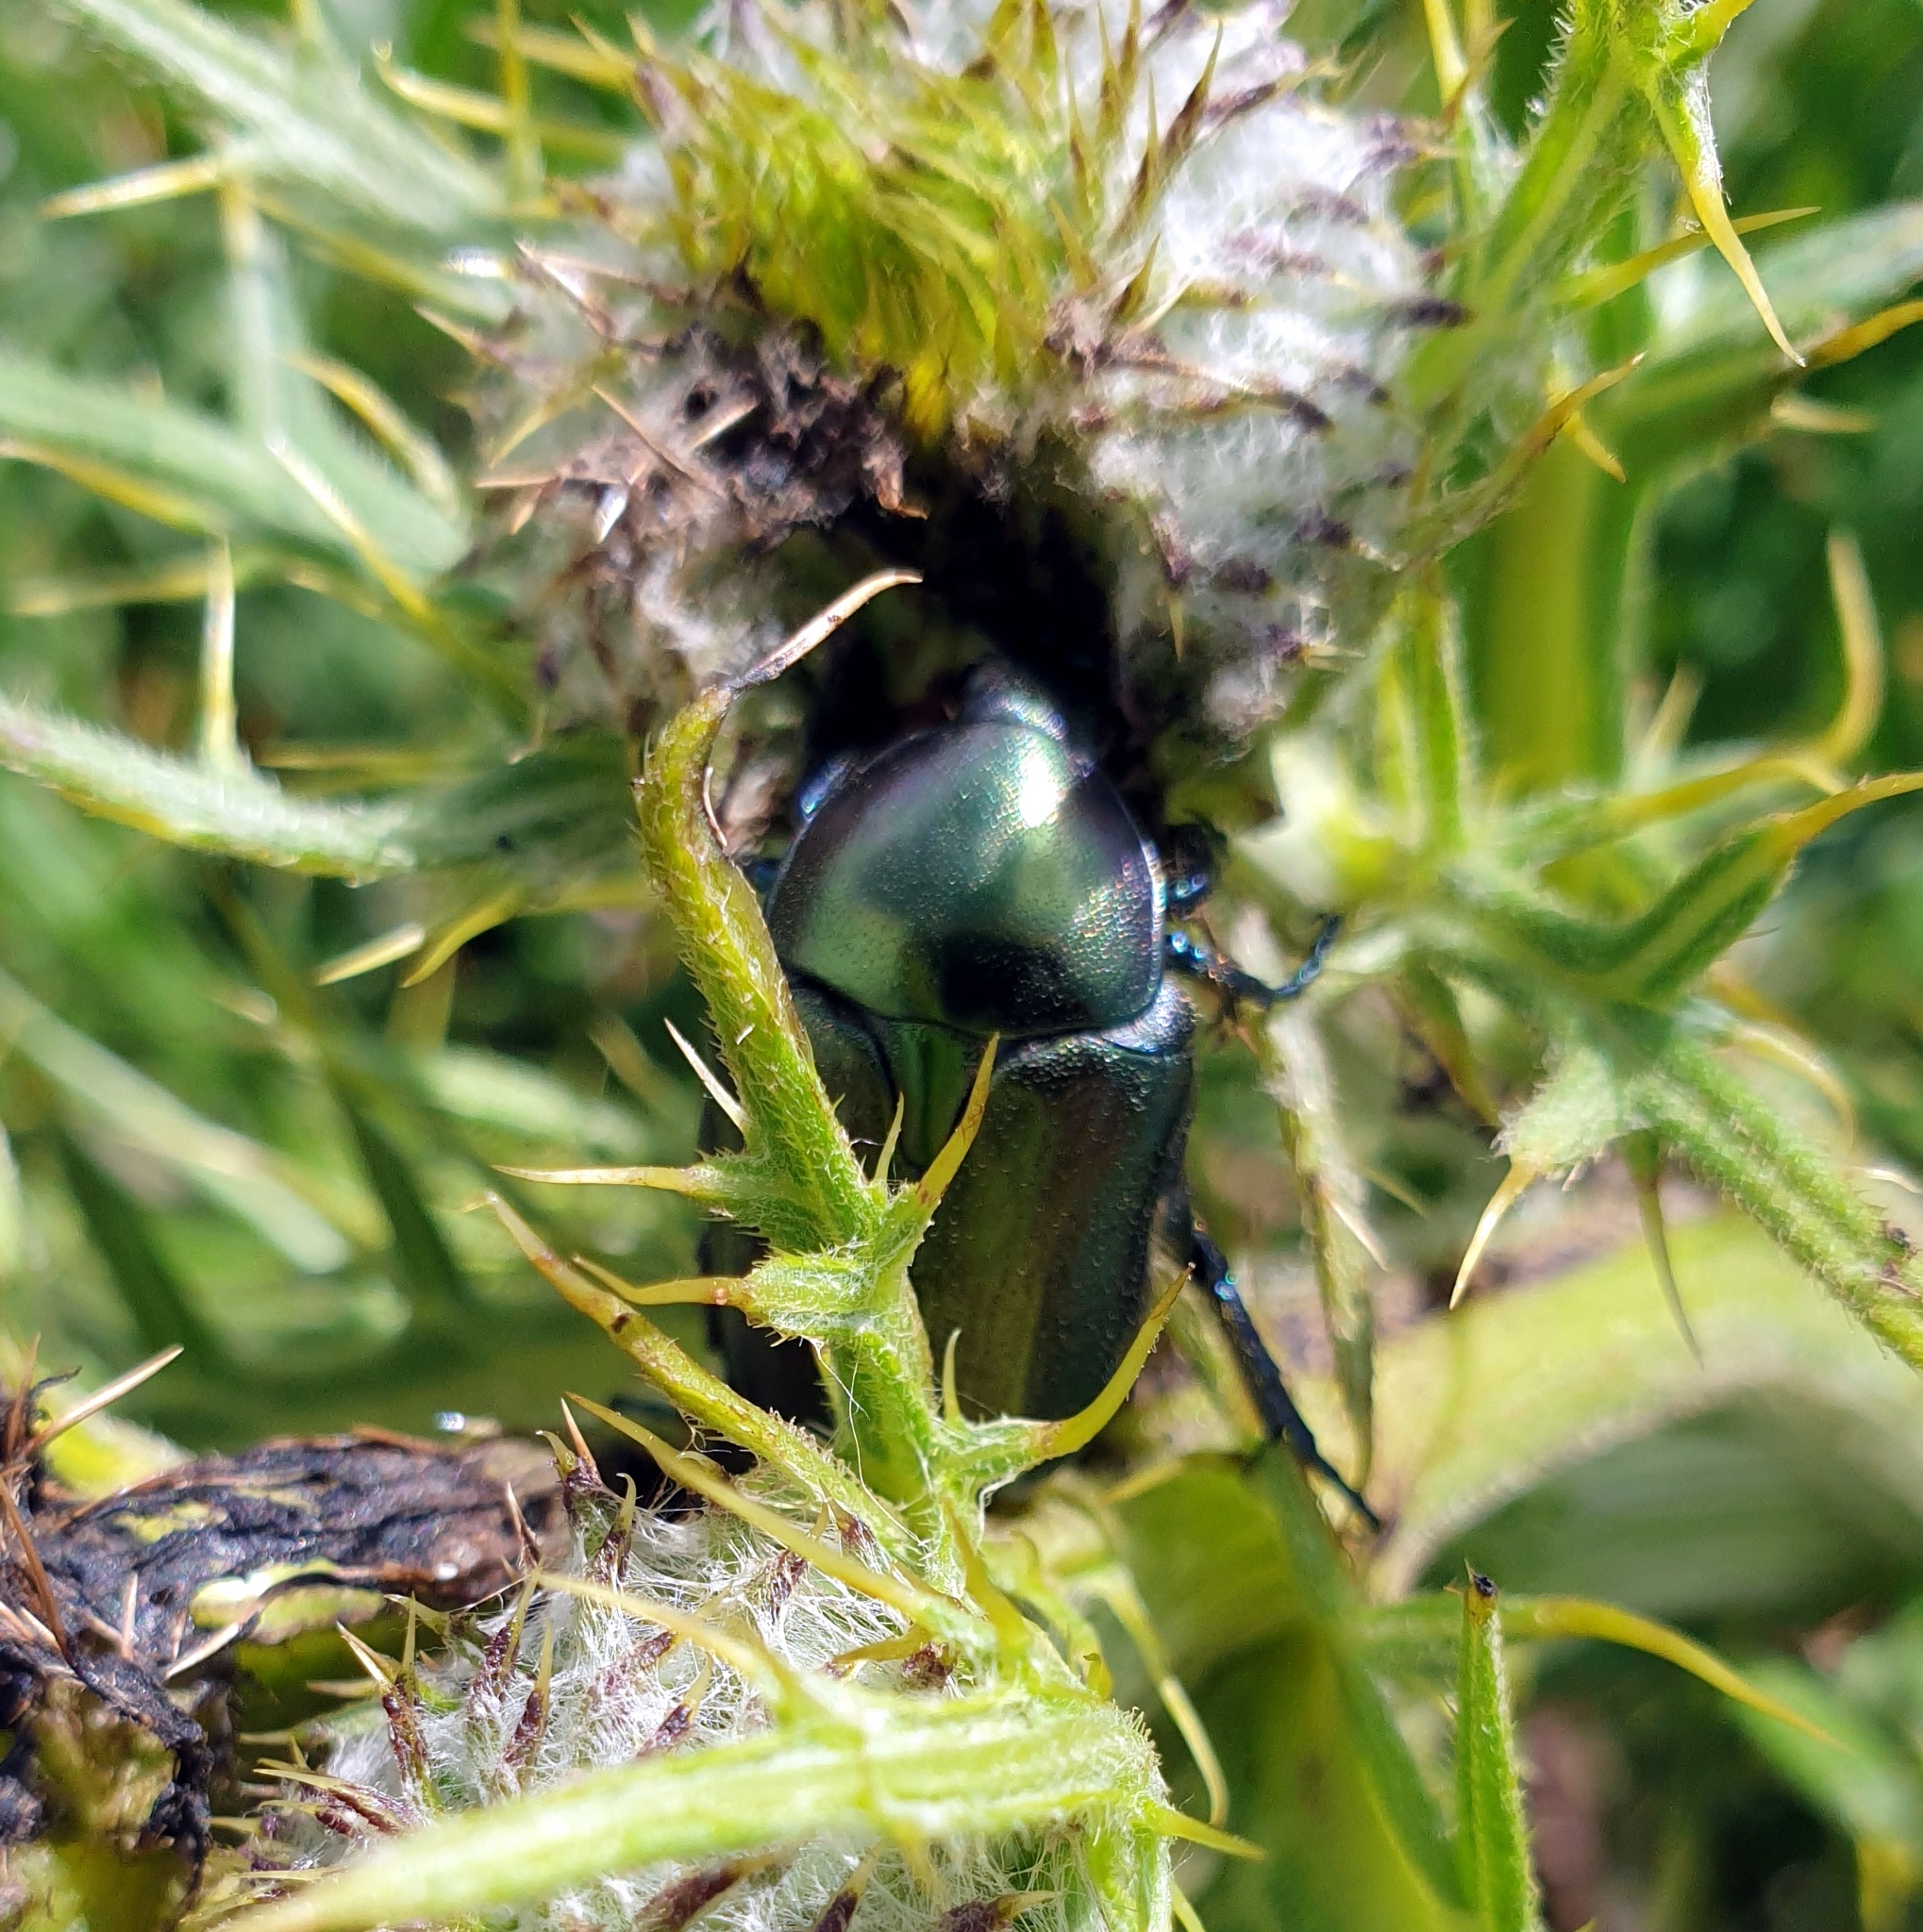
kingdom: Animalia
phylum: Arthropoda
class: Insecta
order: Coleoptera
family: Scarabaeidae
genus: Protaetia
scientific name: Protaetia angustata
